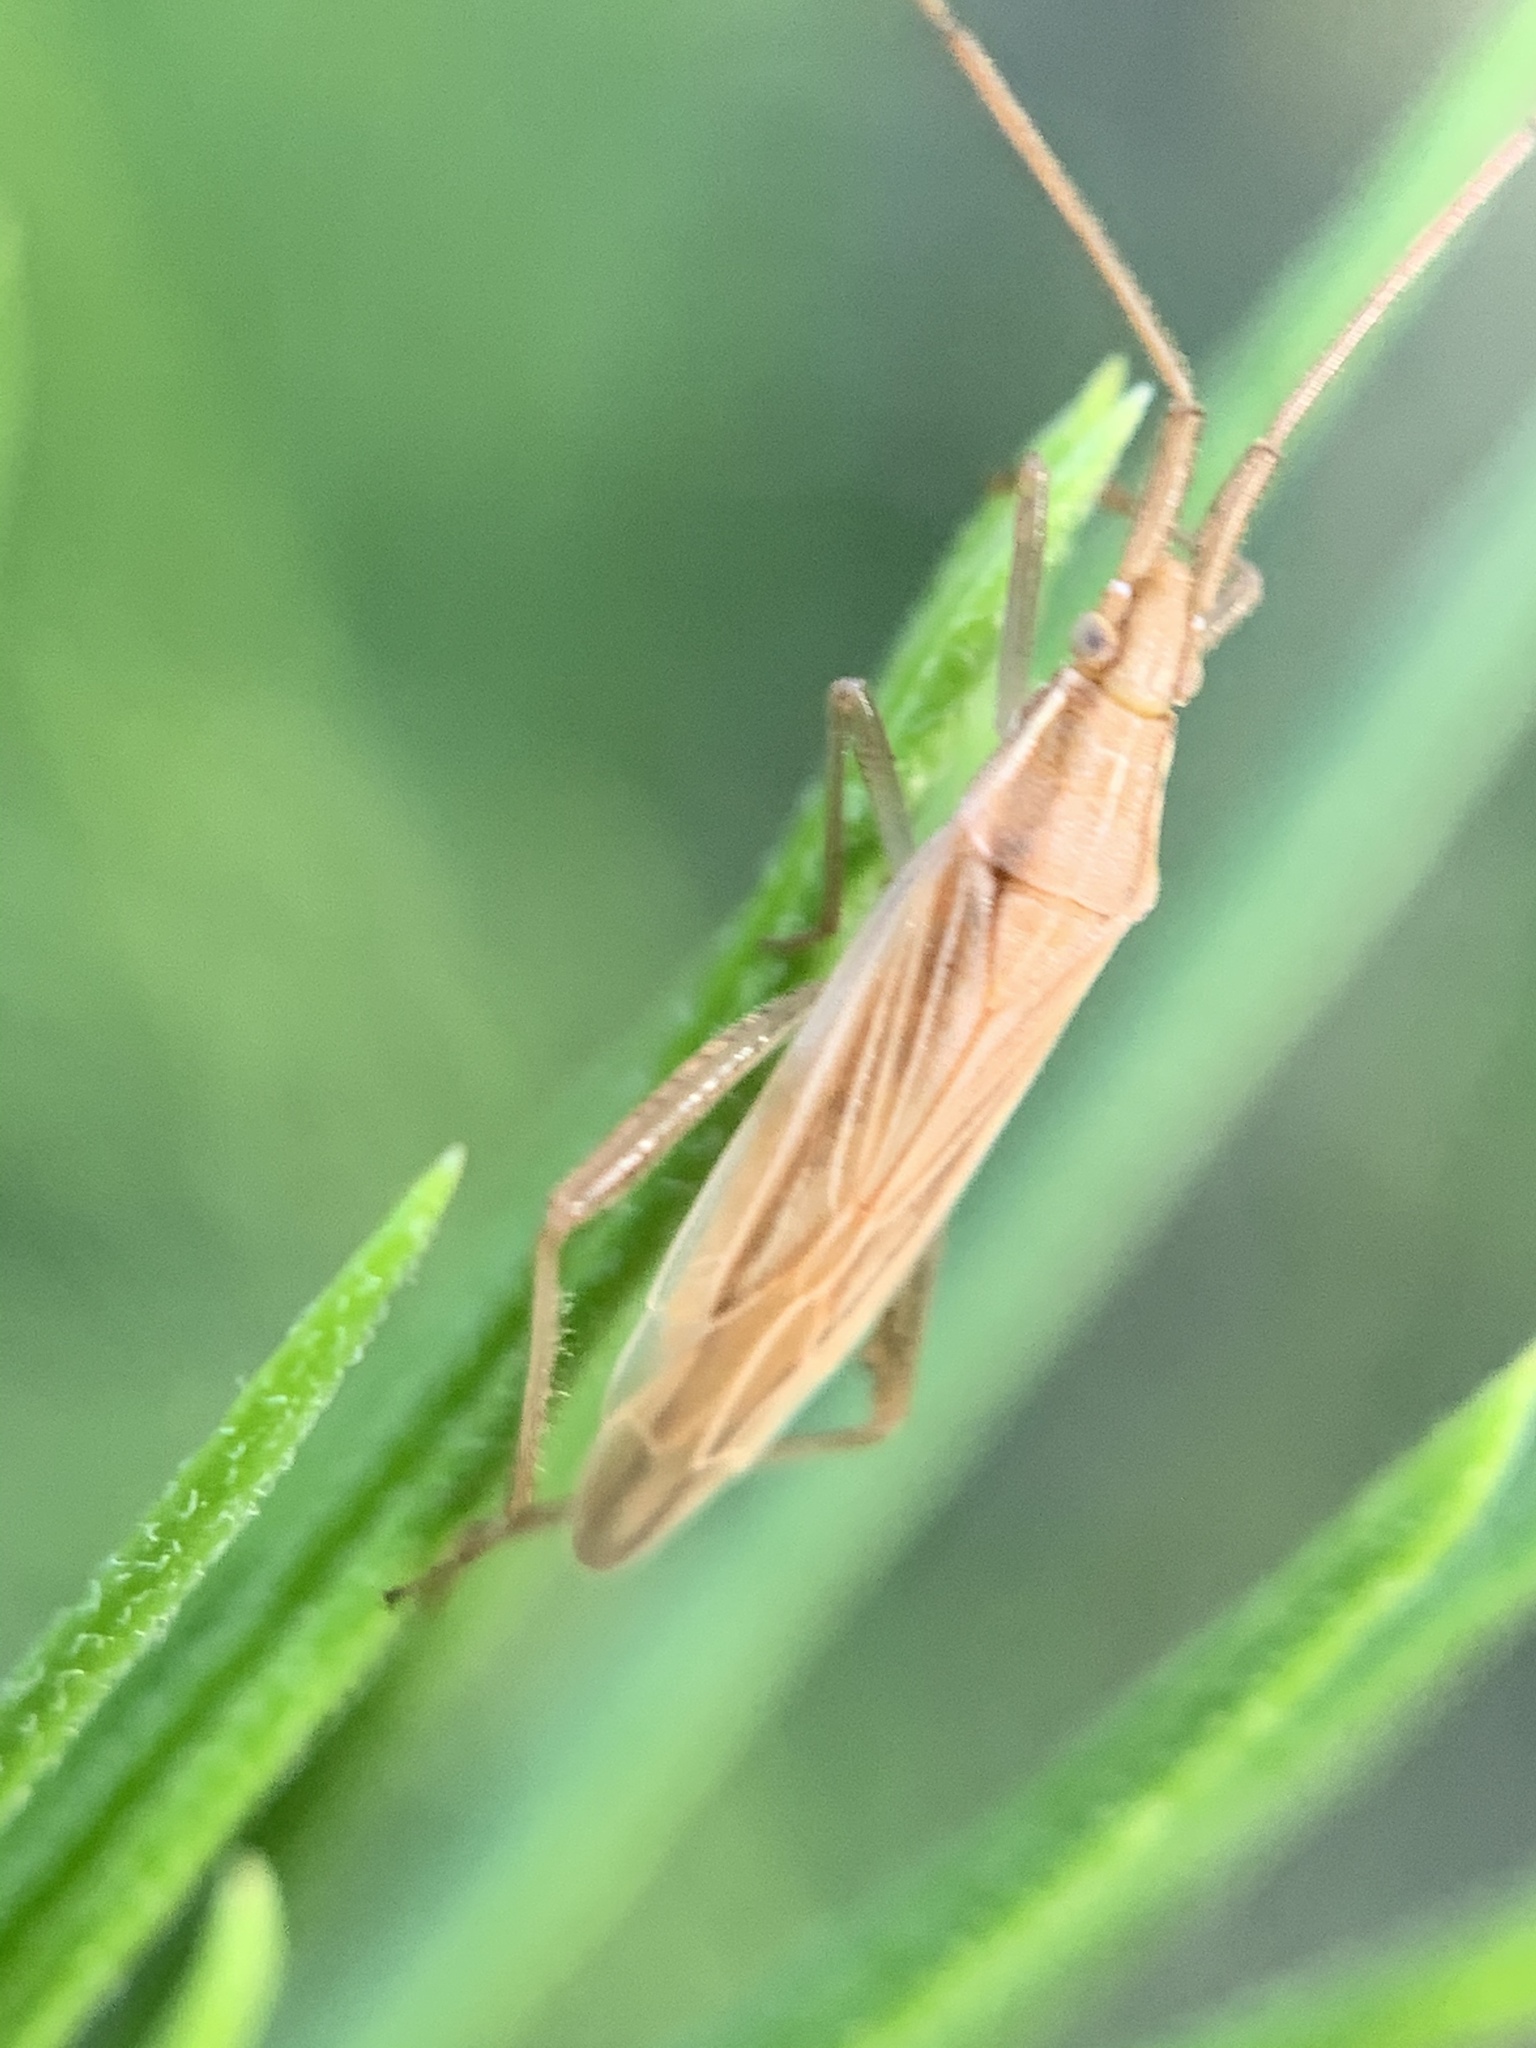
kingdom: Animalia
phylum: Arthropoda
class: Insecta
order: Hemiptera
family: Miridae
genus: Stenodema
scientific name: Stenodema trispinosa
